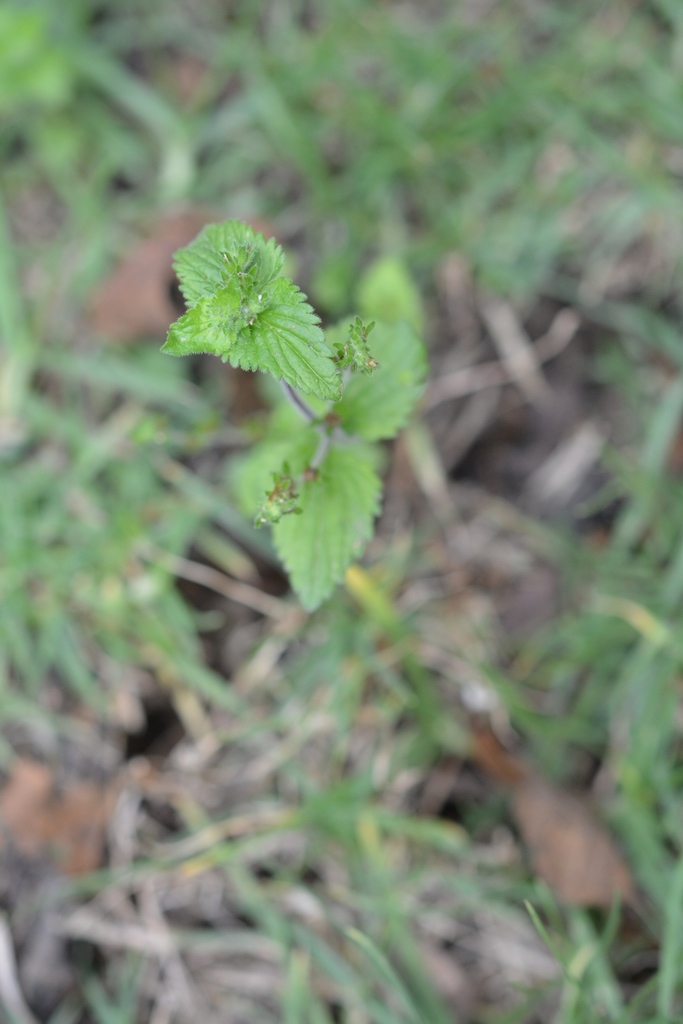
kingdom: Plantae
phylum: Tracheophyta
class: Magnoliopsida
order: Lamiales
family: Plantaginaceae
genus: Veronica
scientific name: Veronica javanica
